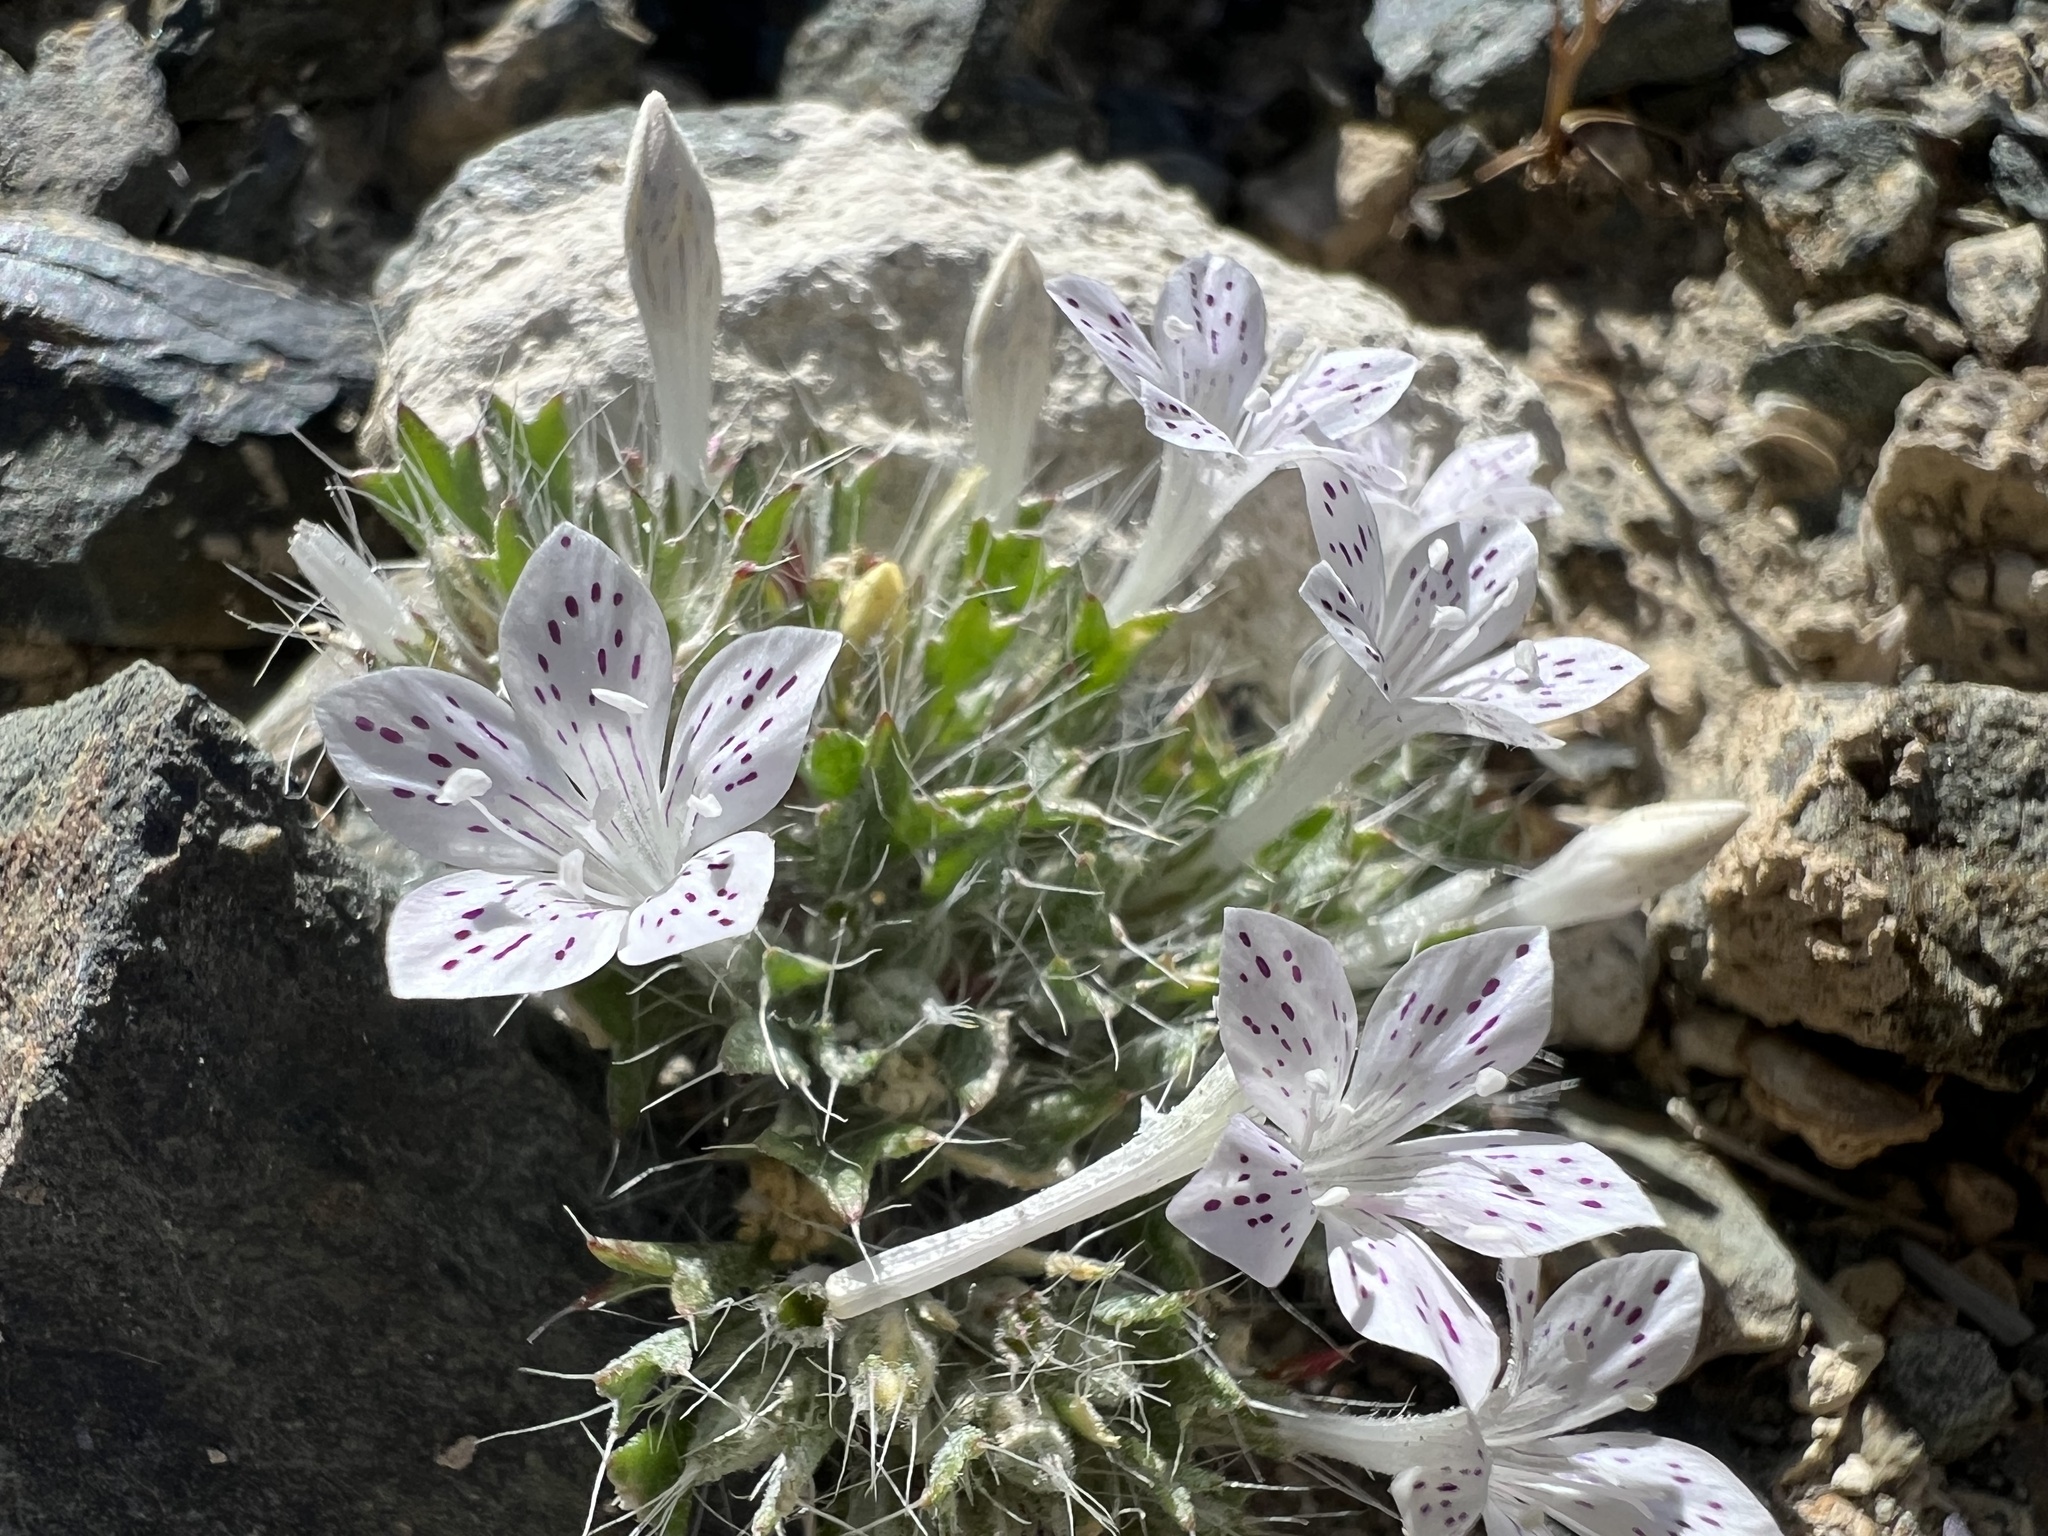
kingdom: Plantae
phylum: Tracheophyta
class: Magnoliopsida
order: Ericales
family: Polemoniaceae
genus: Langloisia
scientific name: Langloisia setosissima
